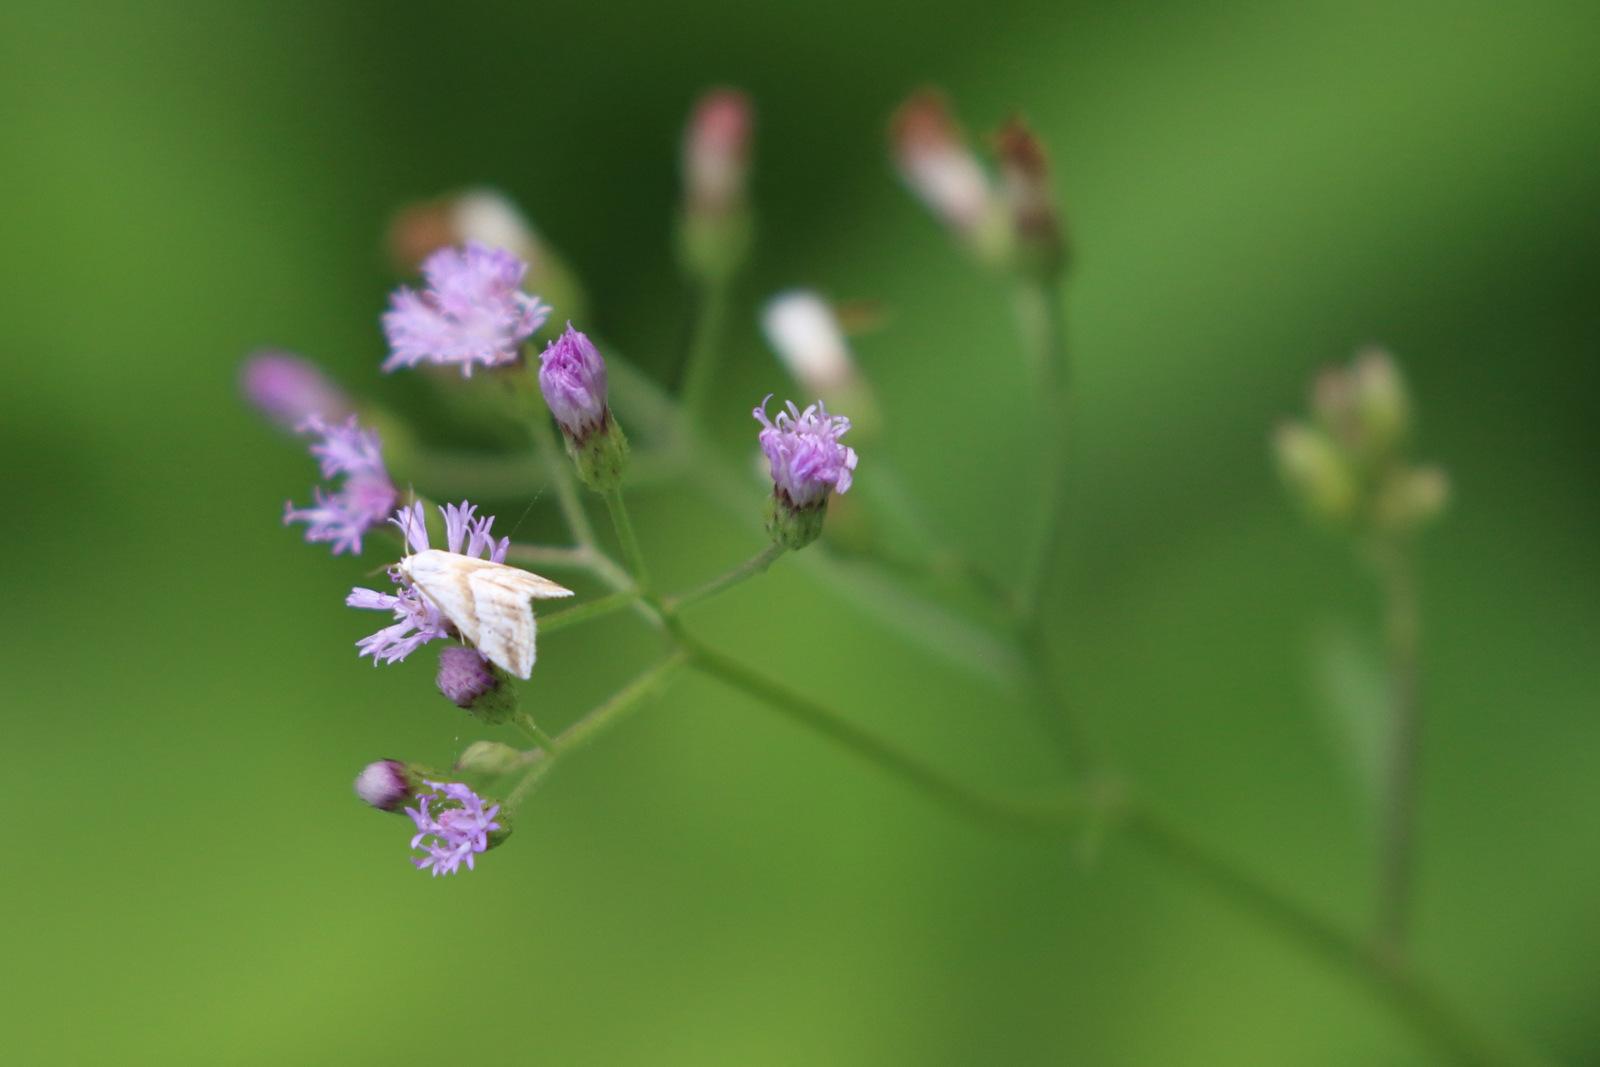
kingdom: Plantae
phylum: Tracheophyta
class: Magnoliopsida
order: Asterales
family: Asteraceae
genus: Cyanthillium
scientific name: Cyanthillium cinereum
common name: Little ironweed
